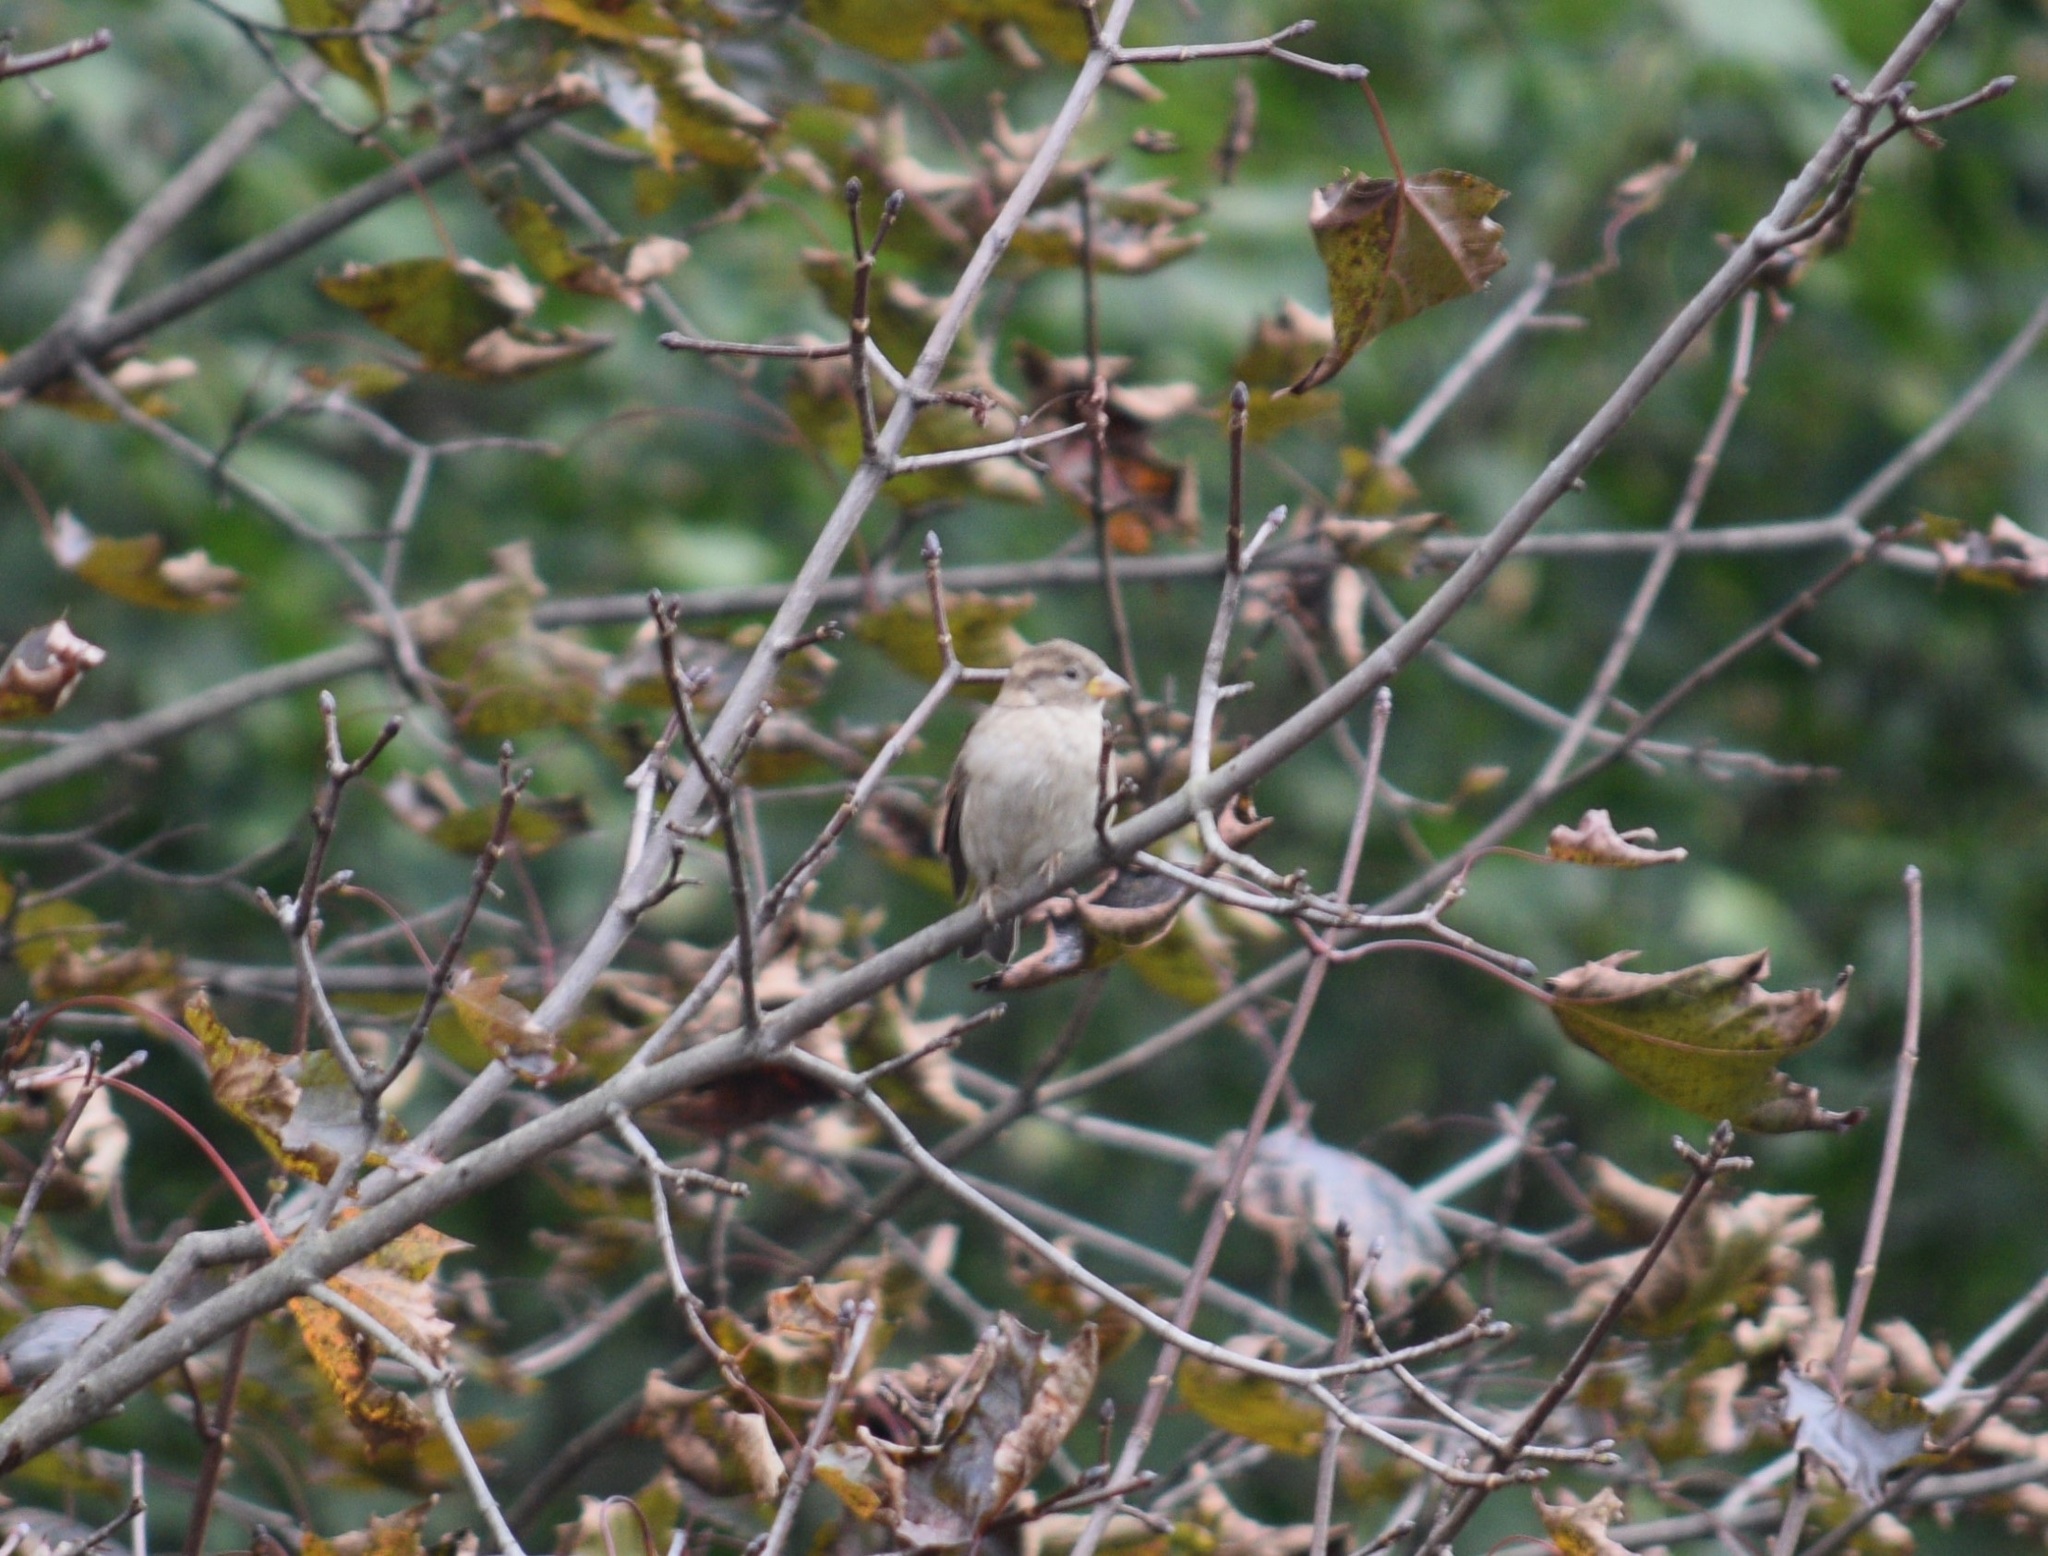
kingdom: Animalia
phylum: Chordata
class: Aves
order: Passeriformes
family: Passeridae
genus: Passer
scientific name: Passer domesticus
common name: House sparrow
